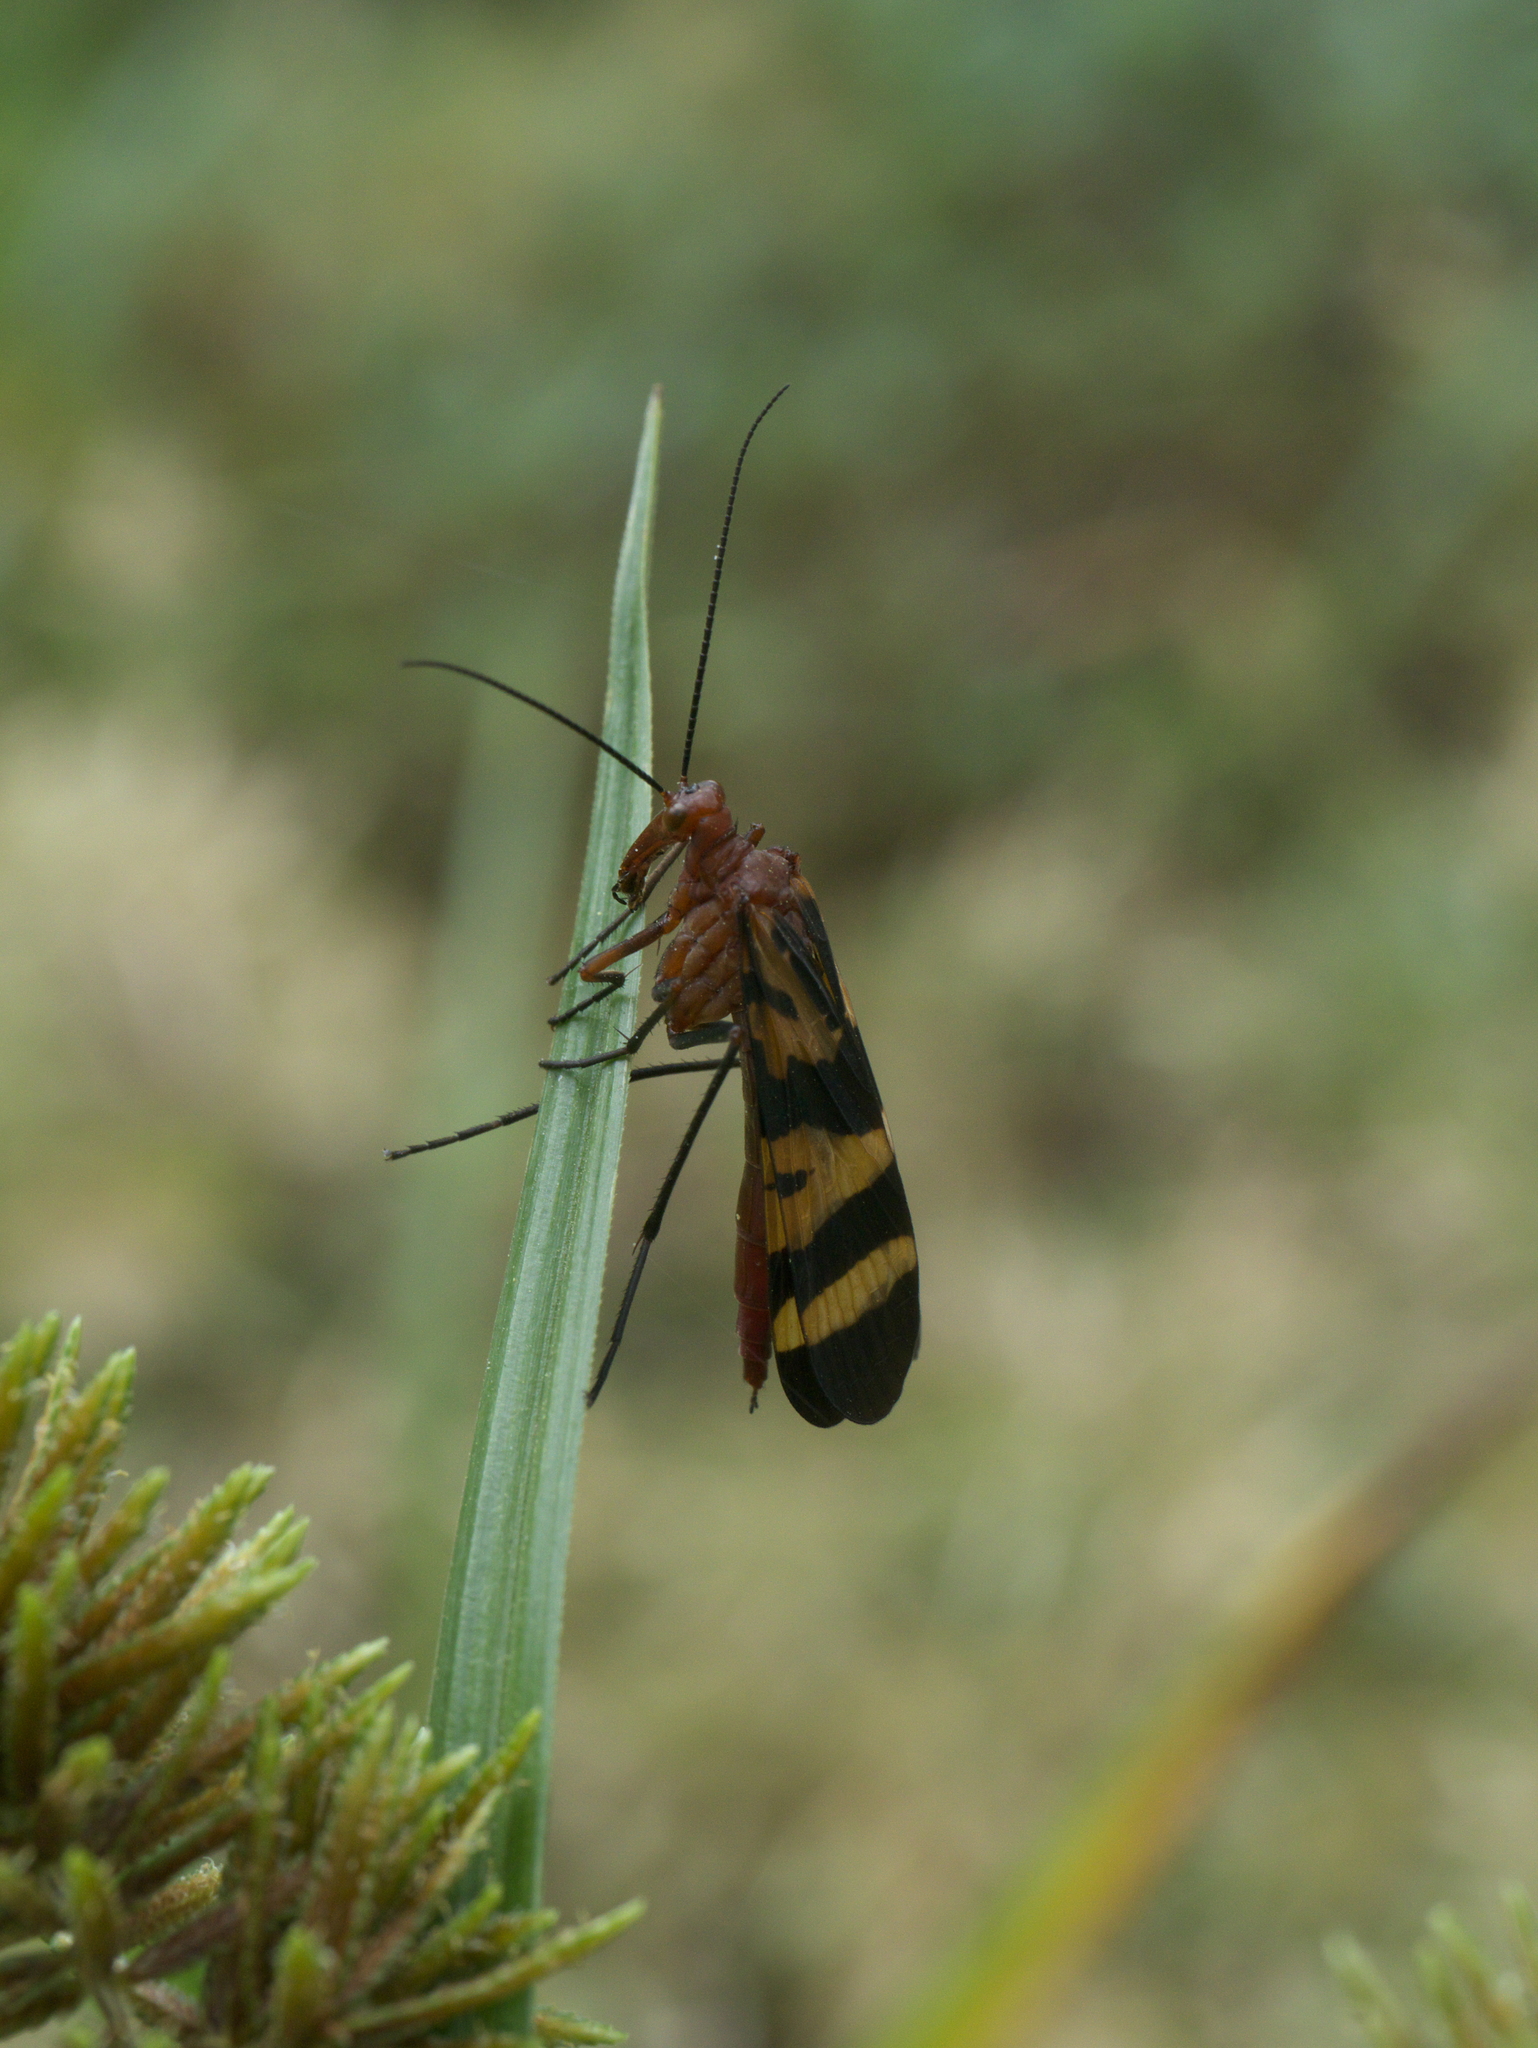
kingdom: Animalia
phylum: Arthropoda
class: Insecta
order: Mecoptera
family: Panorpidae
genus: Panorpa
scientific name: Panorpa nuptialis
